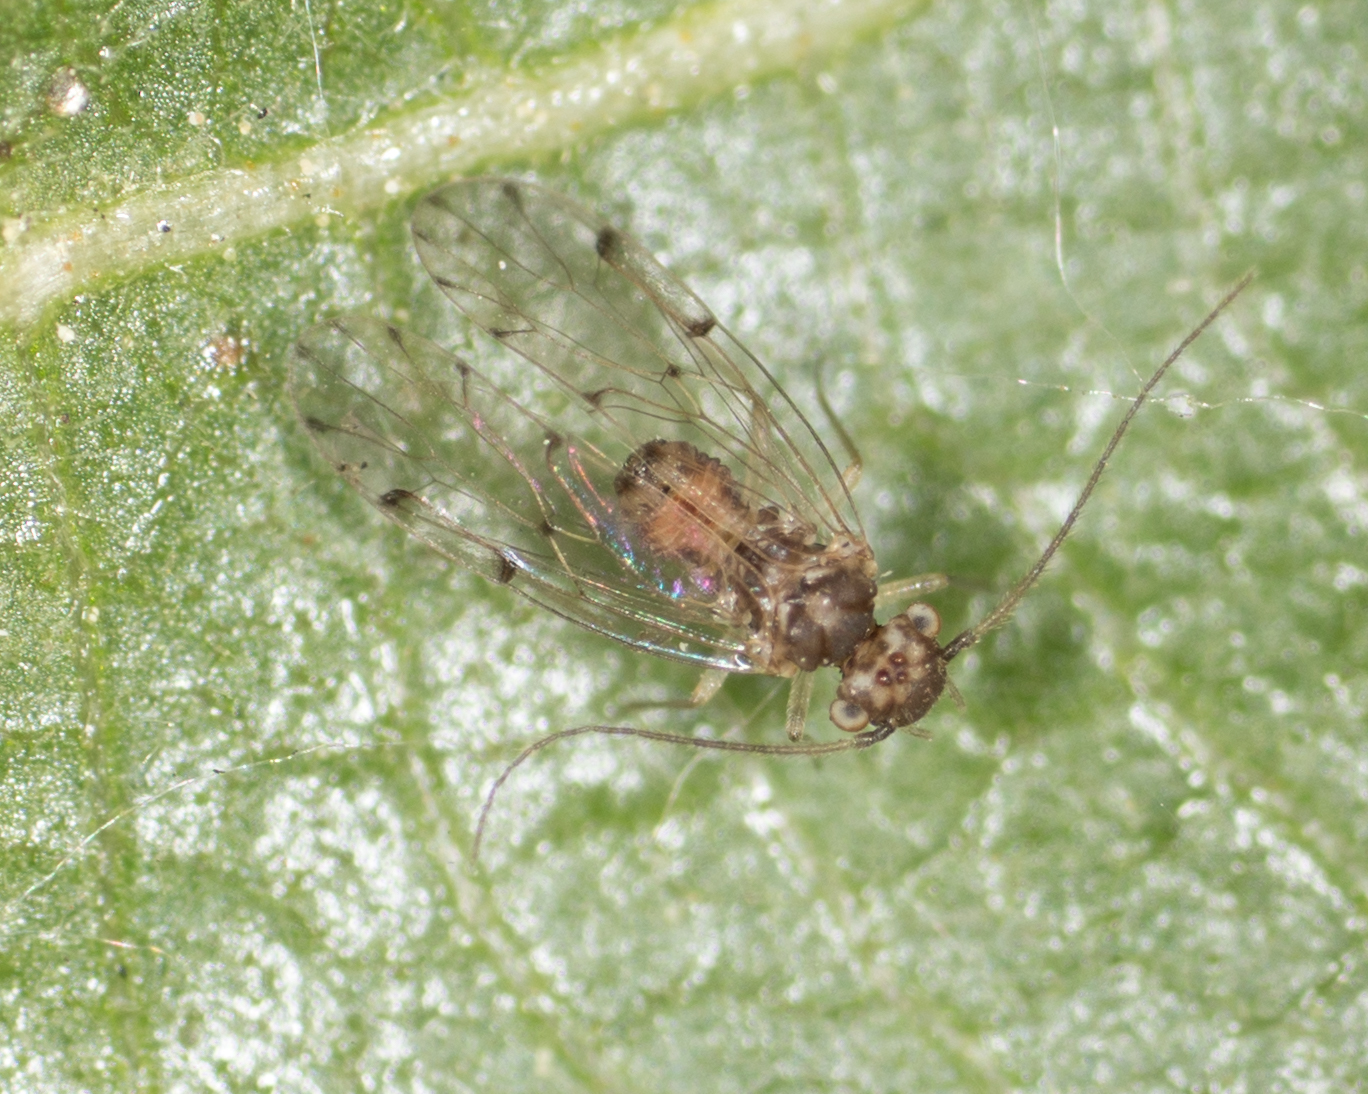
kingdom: Animalia
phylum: Arthropoda
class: Insecta
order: Psocodea
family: Ectopsocidae
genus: Ectopsocus
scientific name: Ectopsocus californicus
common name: Bark lice
